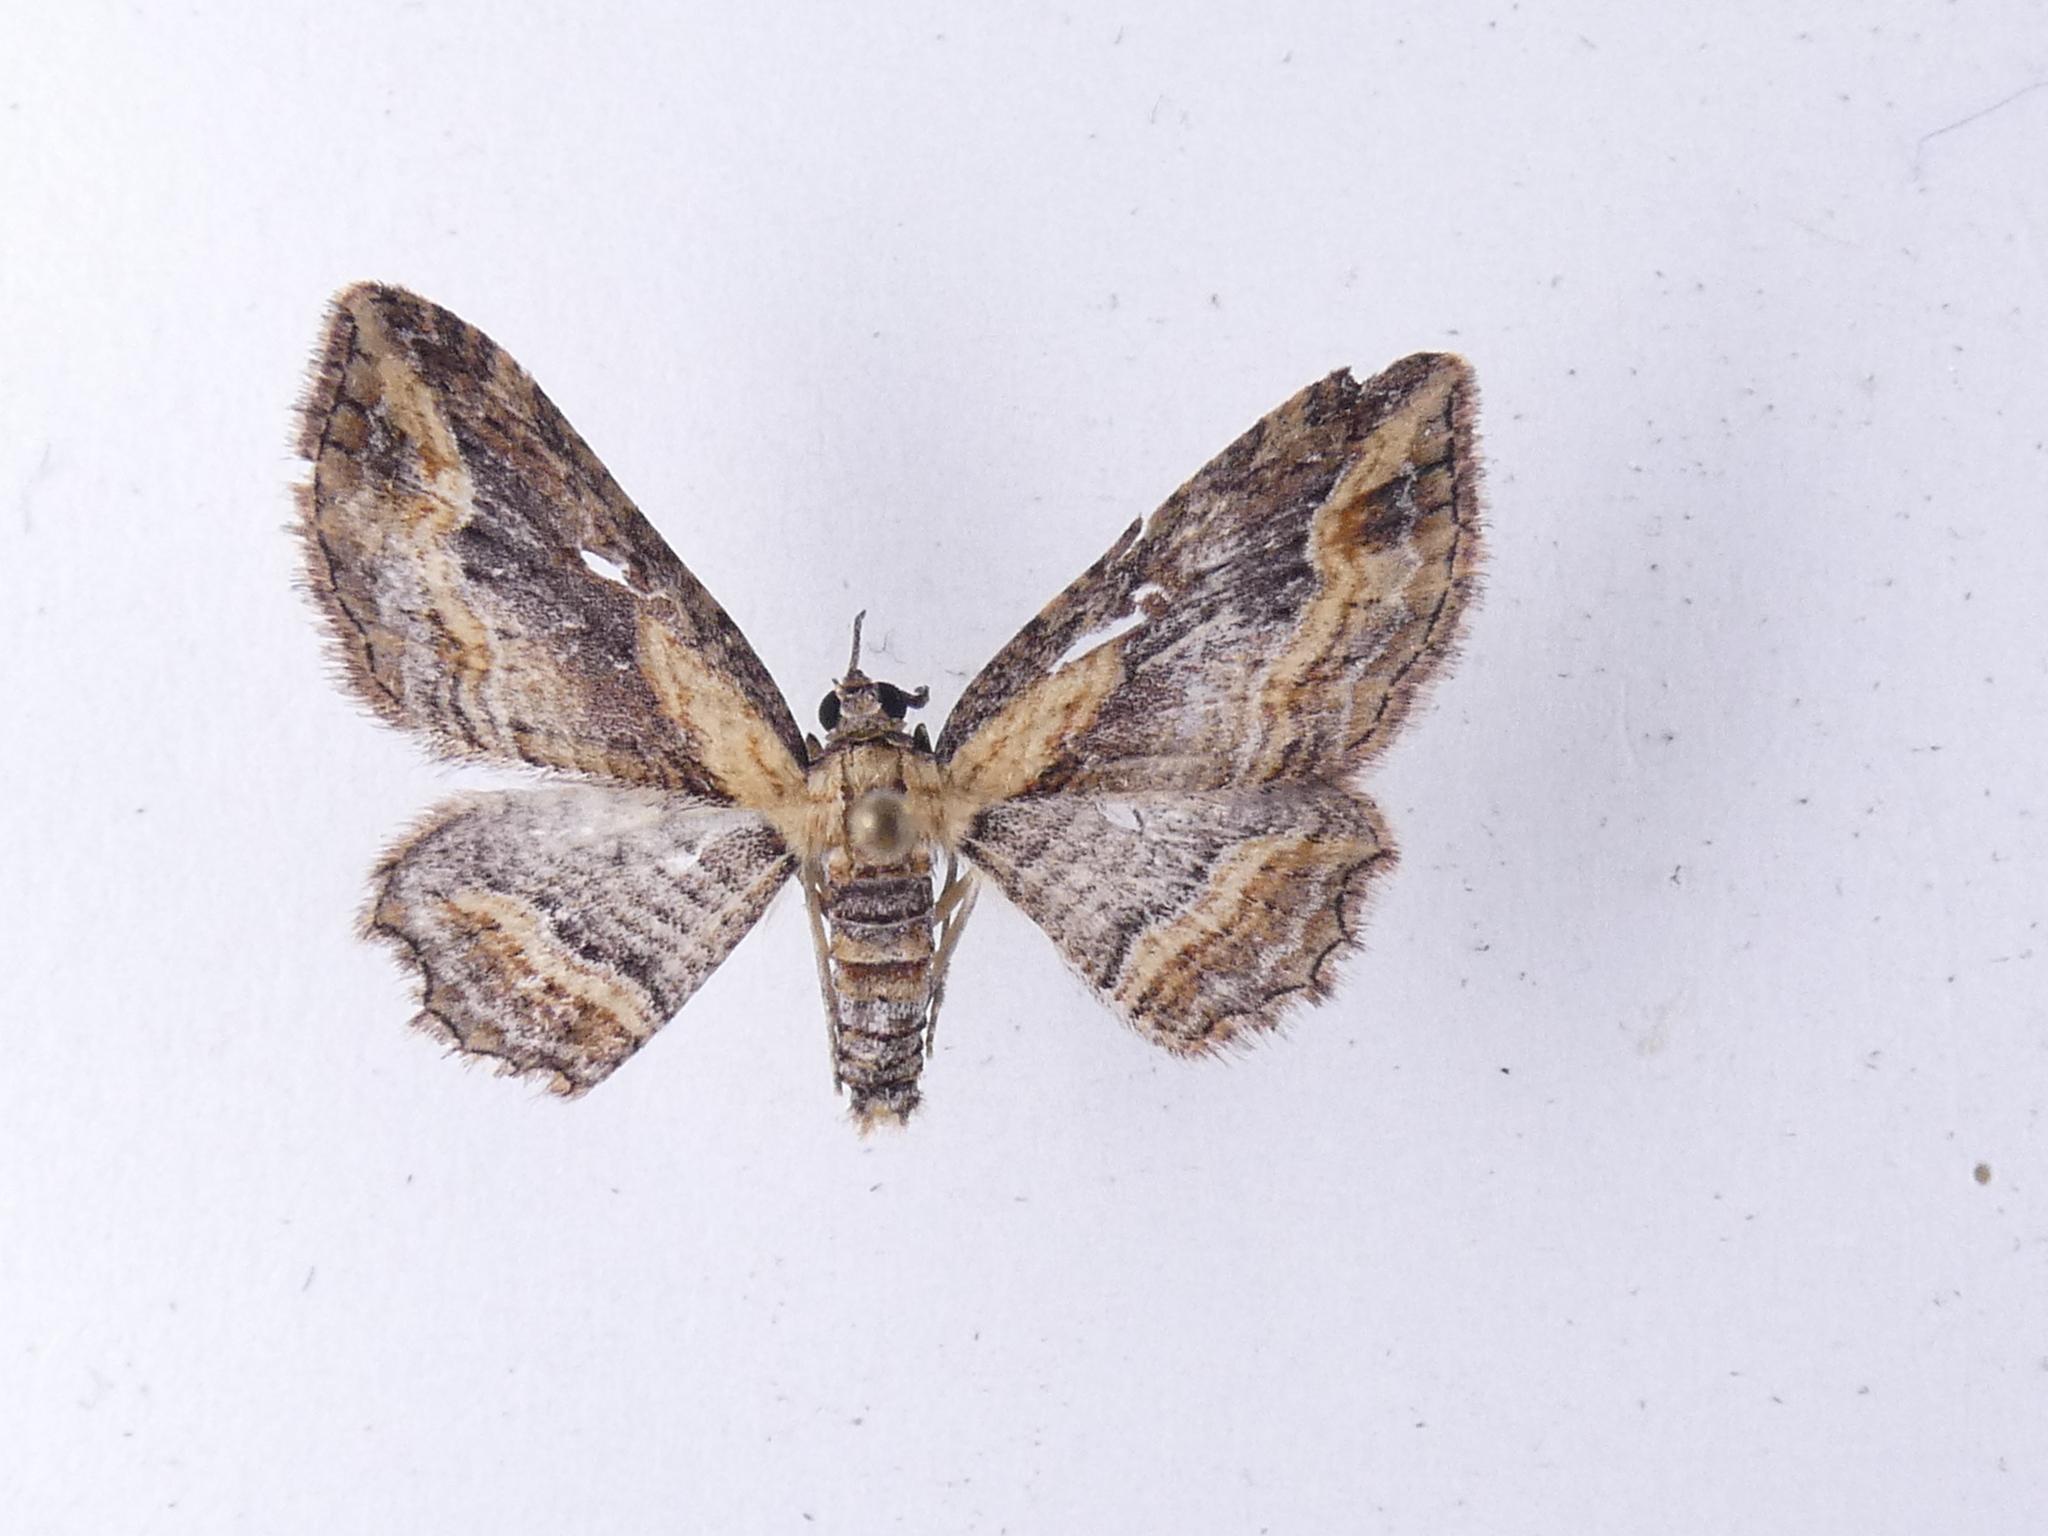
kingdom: Animalia
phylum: Arthropoda
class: Insecta
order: Lepidoptera
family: Geometridae
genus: Chloroclystis
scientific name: Chloroclystis filata
